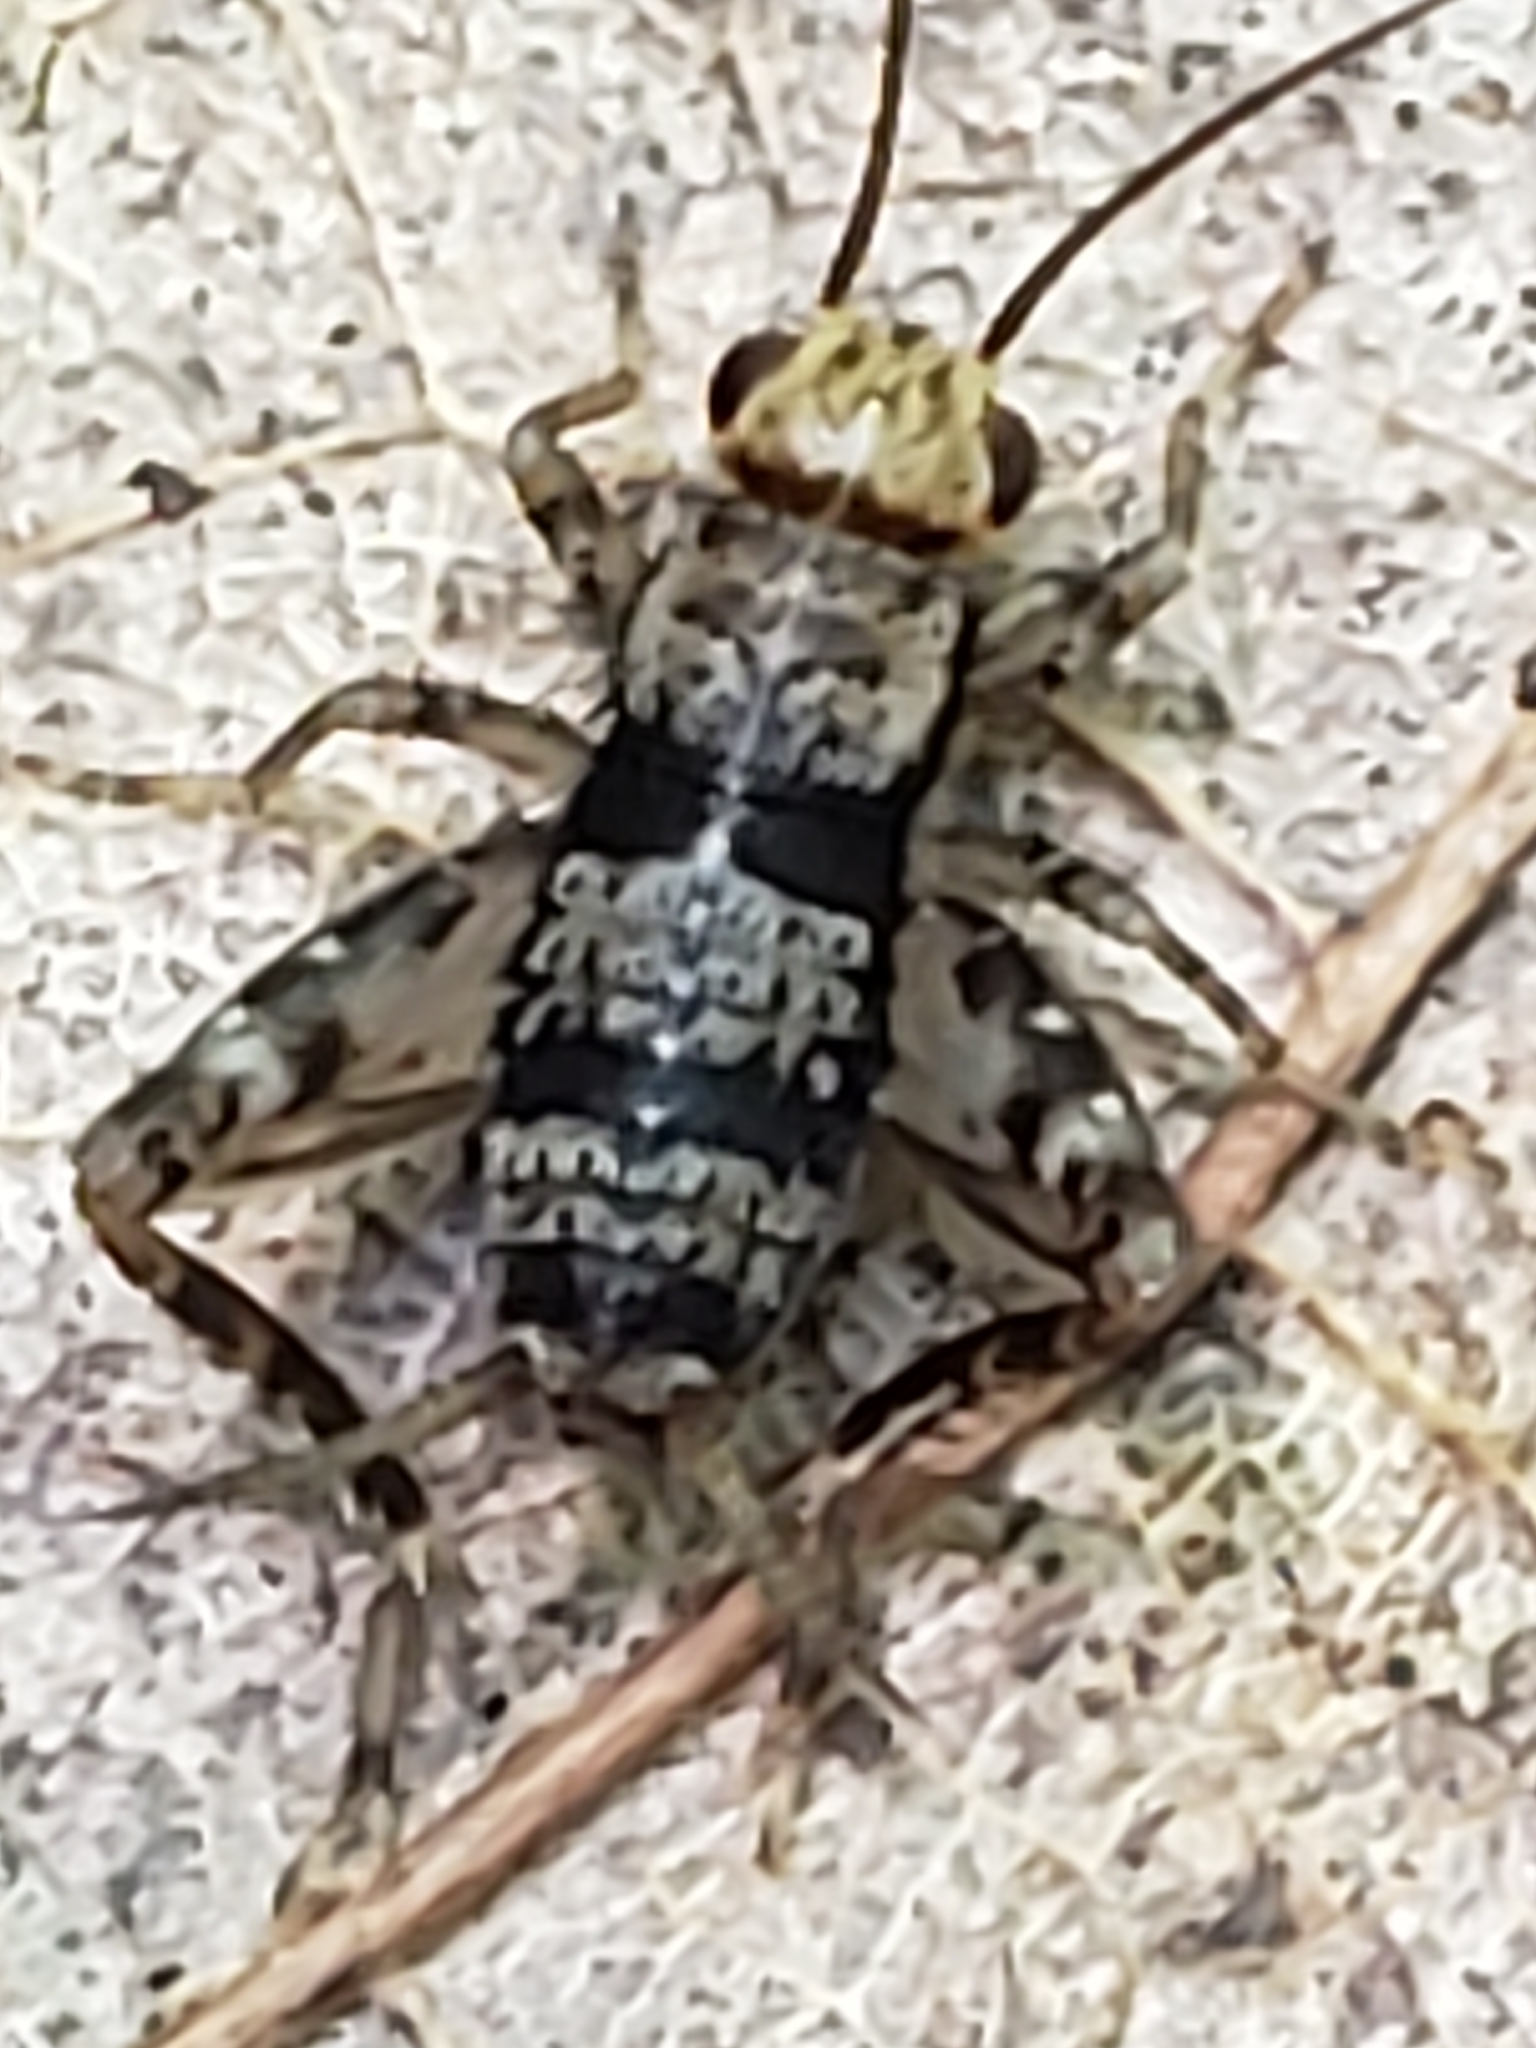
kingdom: Animalia
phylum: Arthropoda
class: Insecta
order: Orthoptera
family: Trigonidiidae
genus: Allonemobius
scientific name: Allonemobius maculatus
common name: Larger spotted ground cricket
